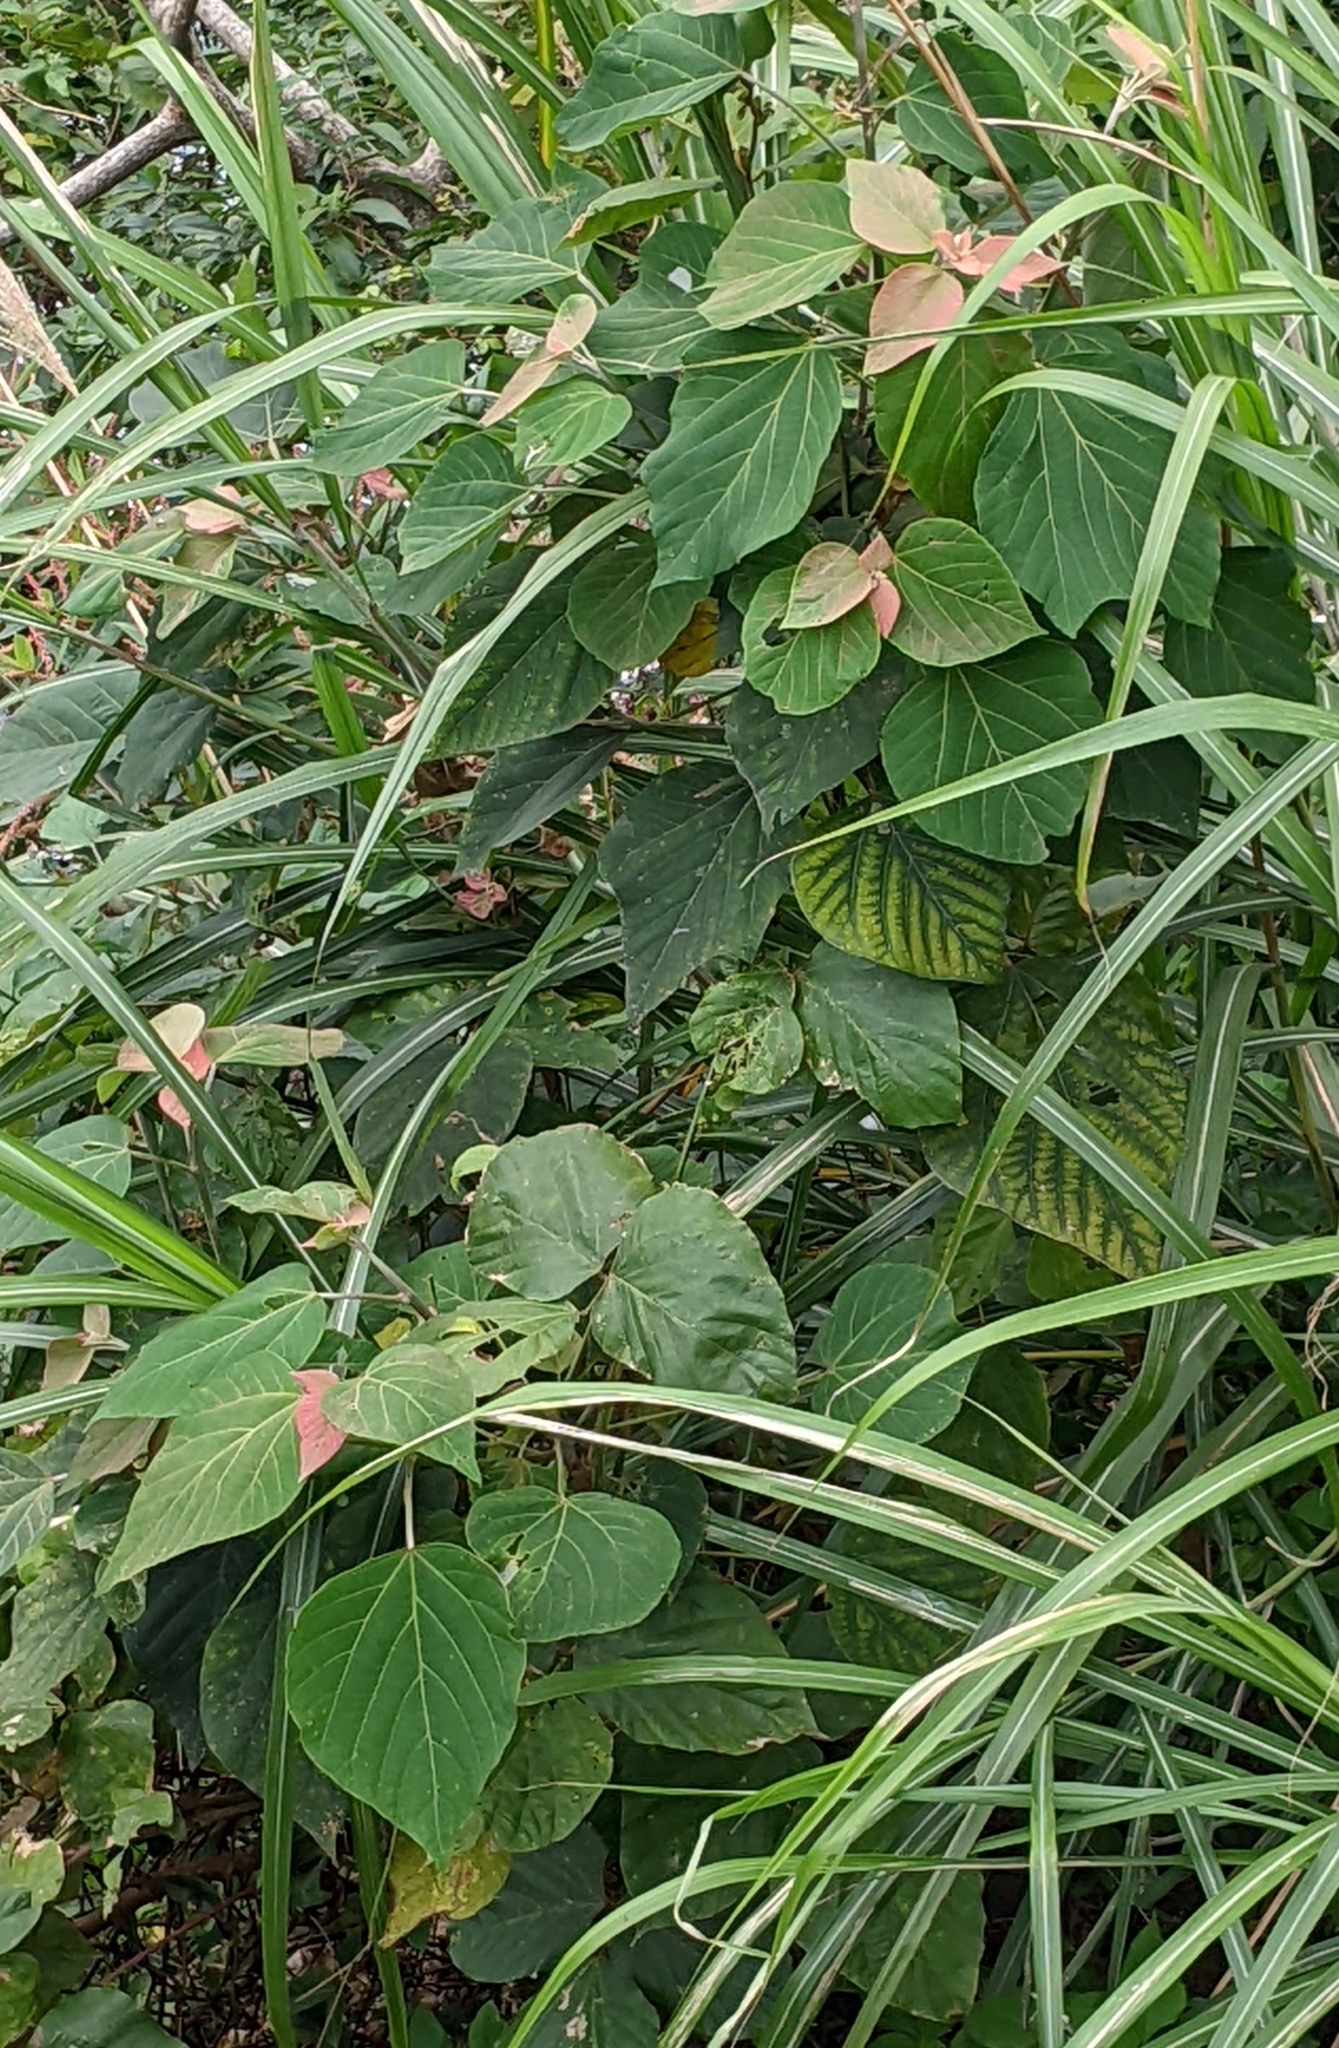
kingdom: Plantae
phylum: Tracheophyta
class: Magnoliopsida
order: Malpighiales
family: Euphorbiaceae
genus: Mallotus
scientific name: Mallotus japonicus
